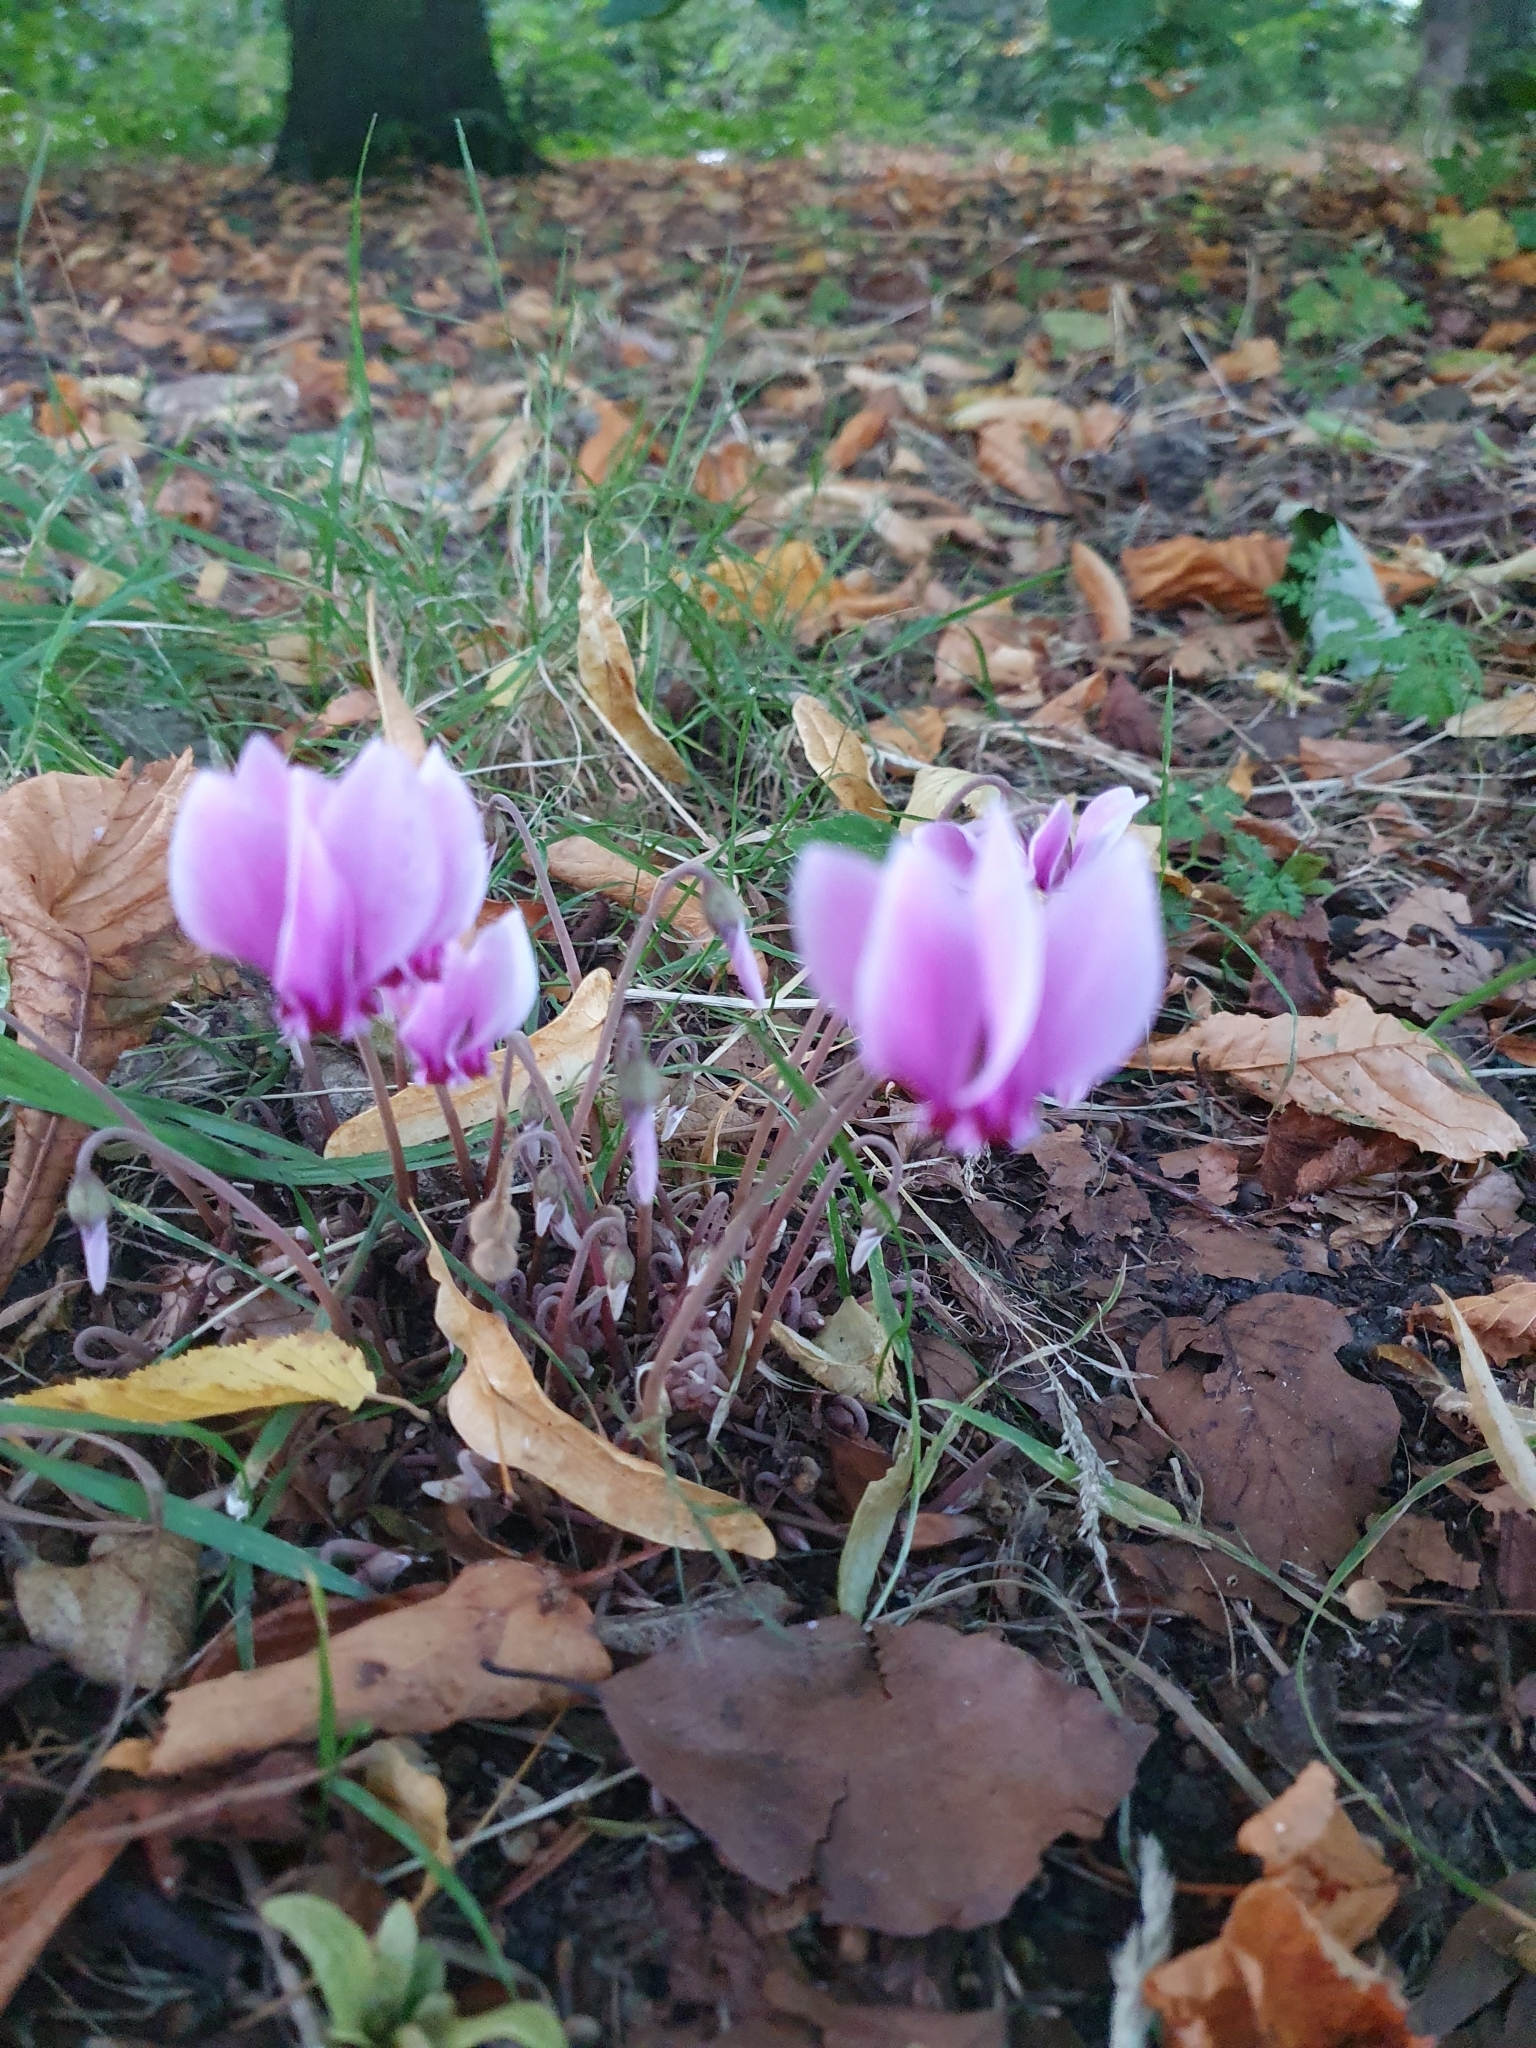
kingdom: Plantae
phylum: Tracheophyta
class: Magnoliopsida
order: Ericales
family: Primulaceae
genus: Cyclamen
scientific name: Cyclamen hederifolium
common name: Sowbread
